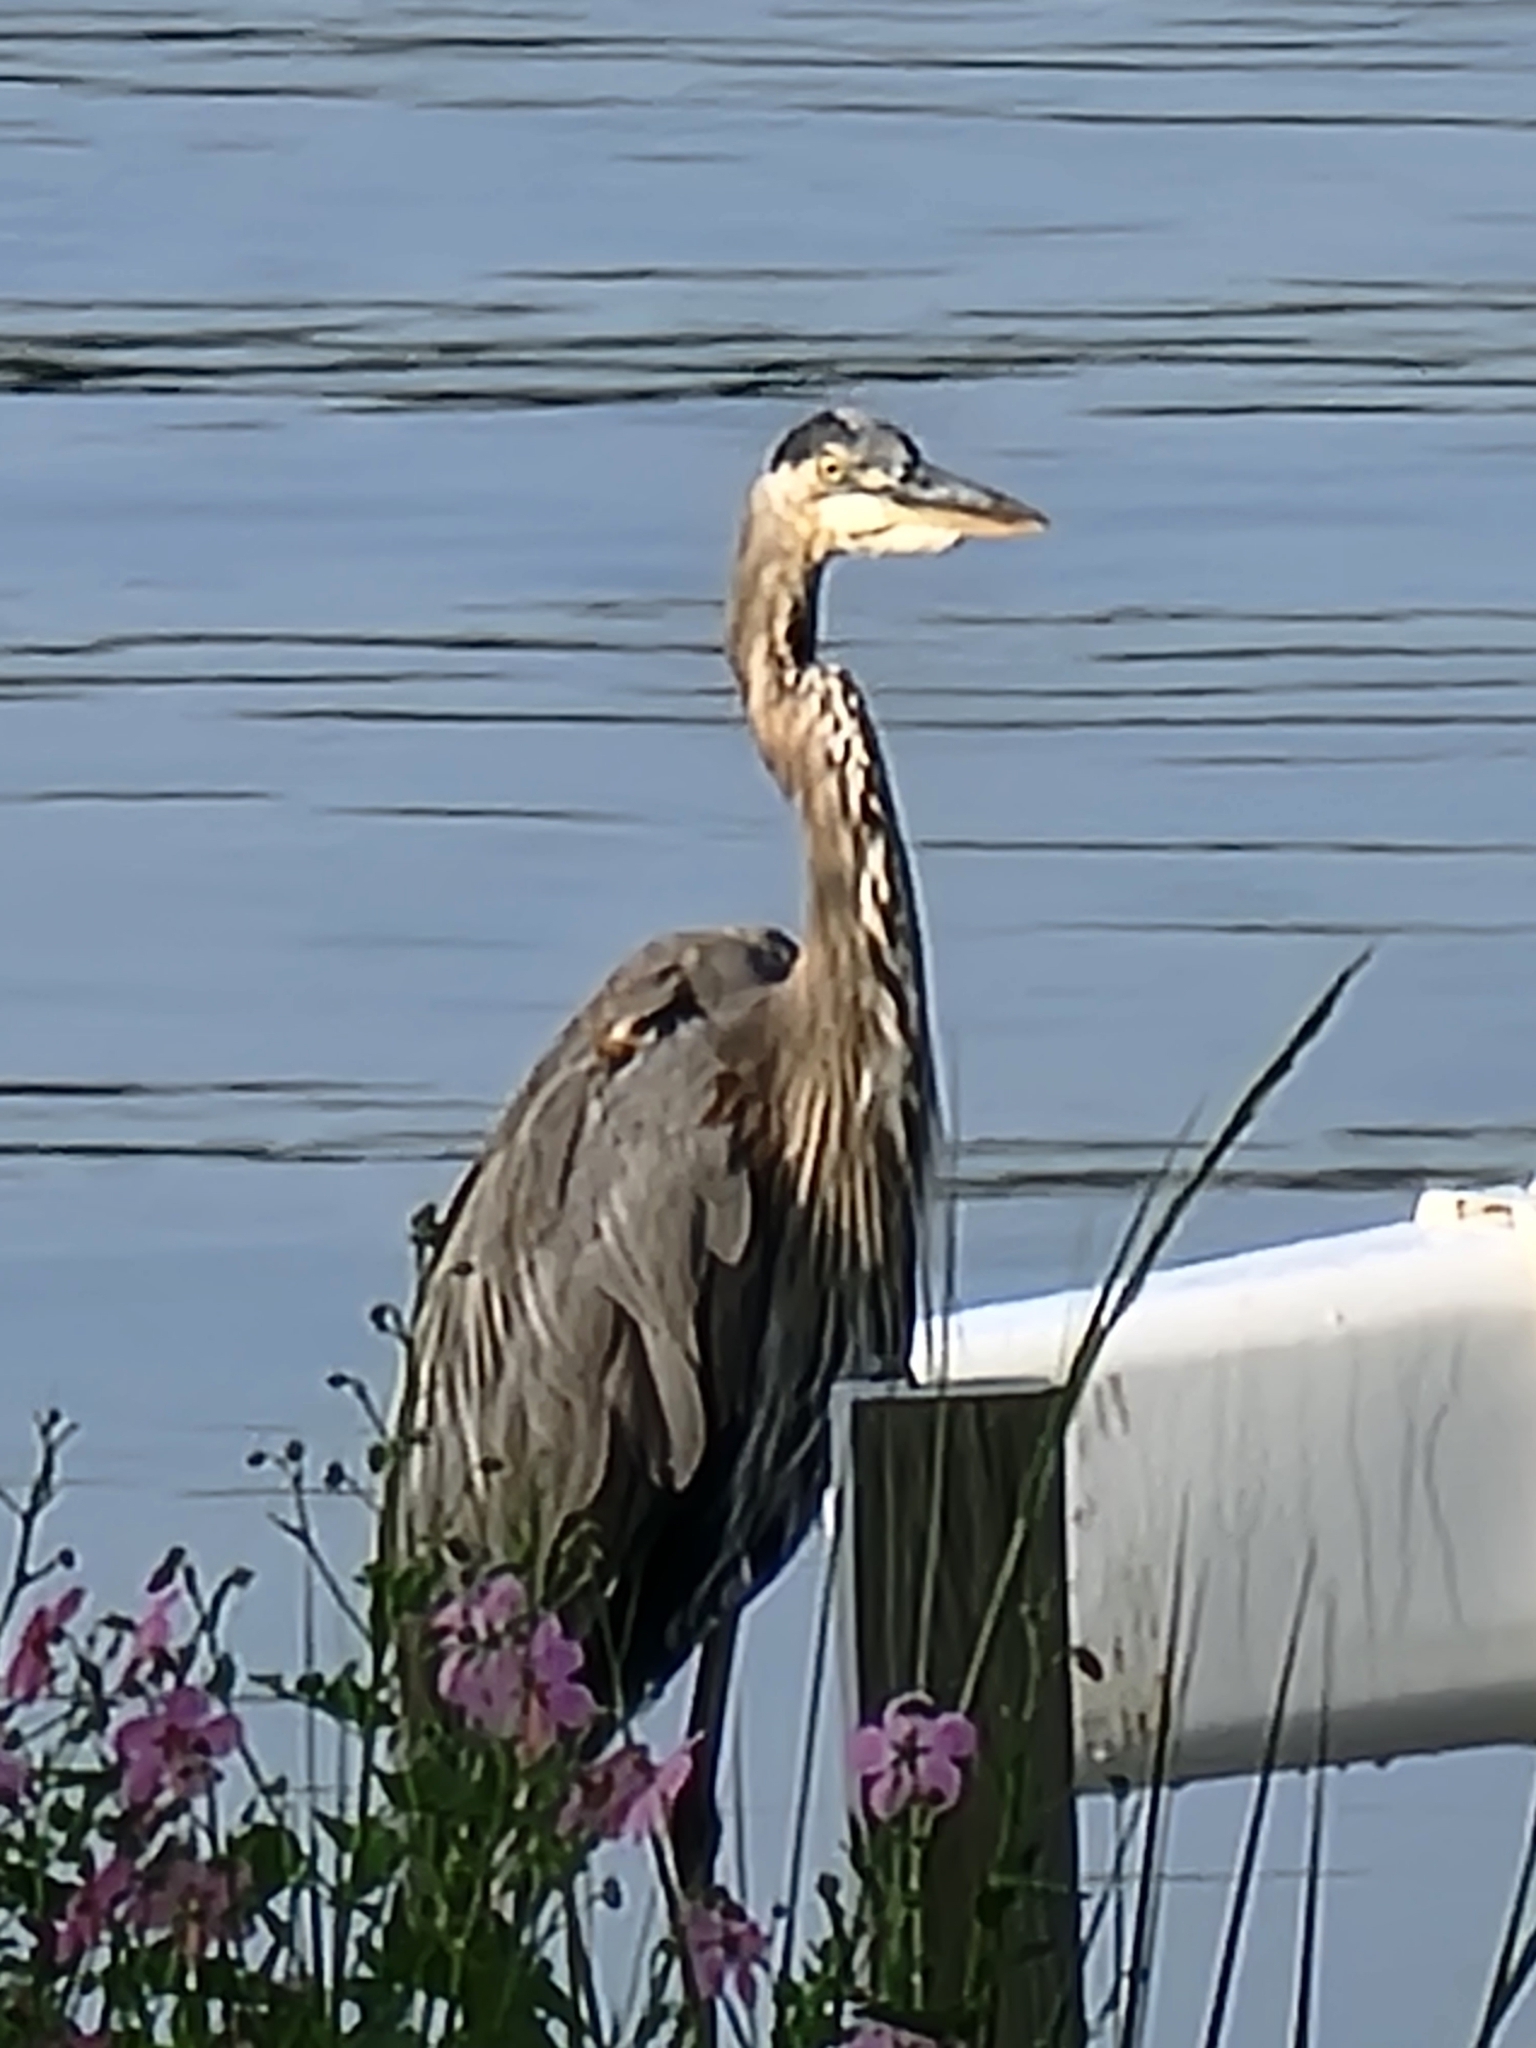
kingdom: Animalia
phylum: Chordata
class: Aves
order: Pelecaniformes
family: Ardeidae
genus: Ardea
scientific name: Ardea herodias
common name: Great blue heron
